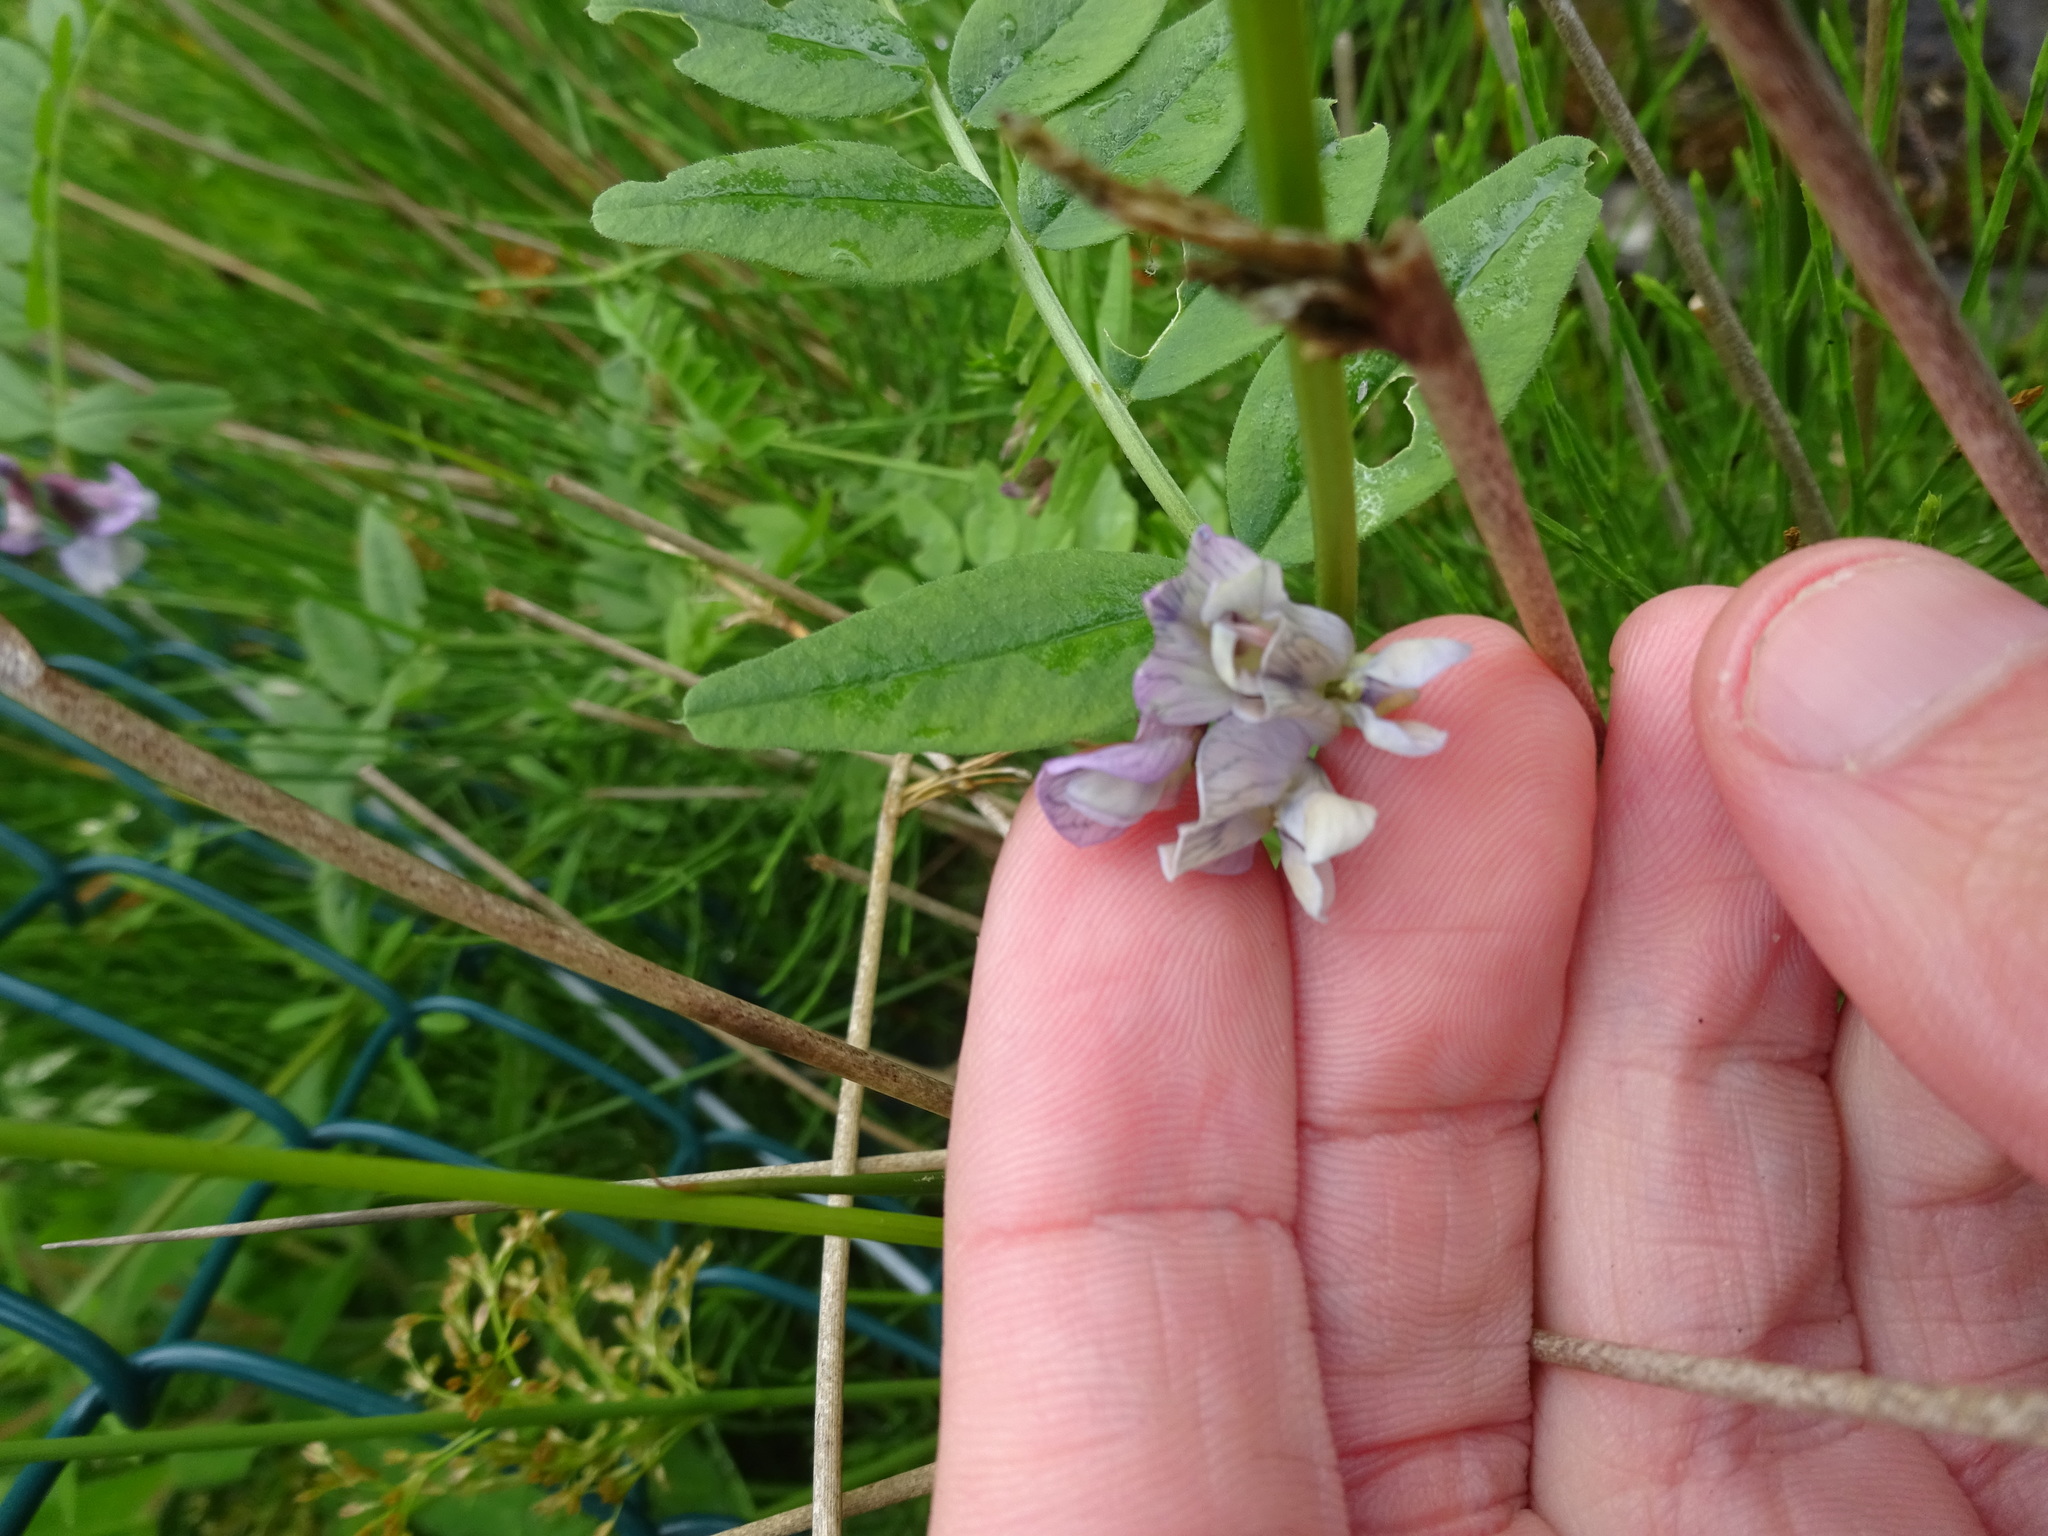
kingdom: Plantae
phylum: Tracheophyta
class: Magnoliopsida
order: Fabales
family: Fabaceae
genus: Vicia
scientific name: Vicia sepium
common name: Bush vetch
